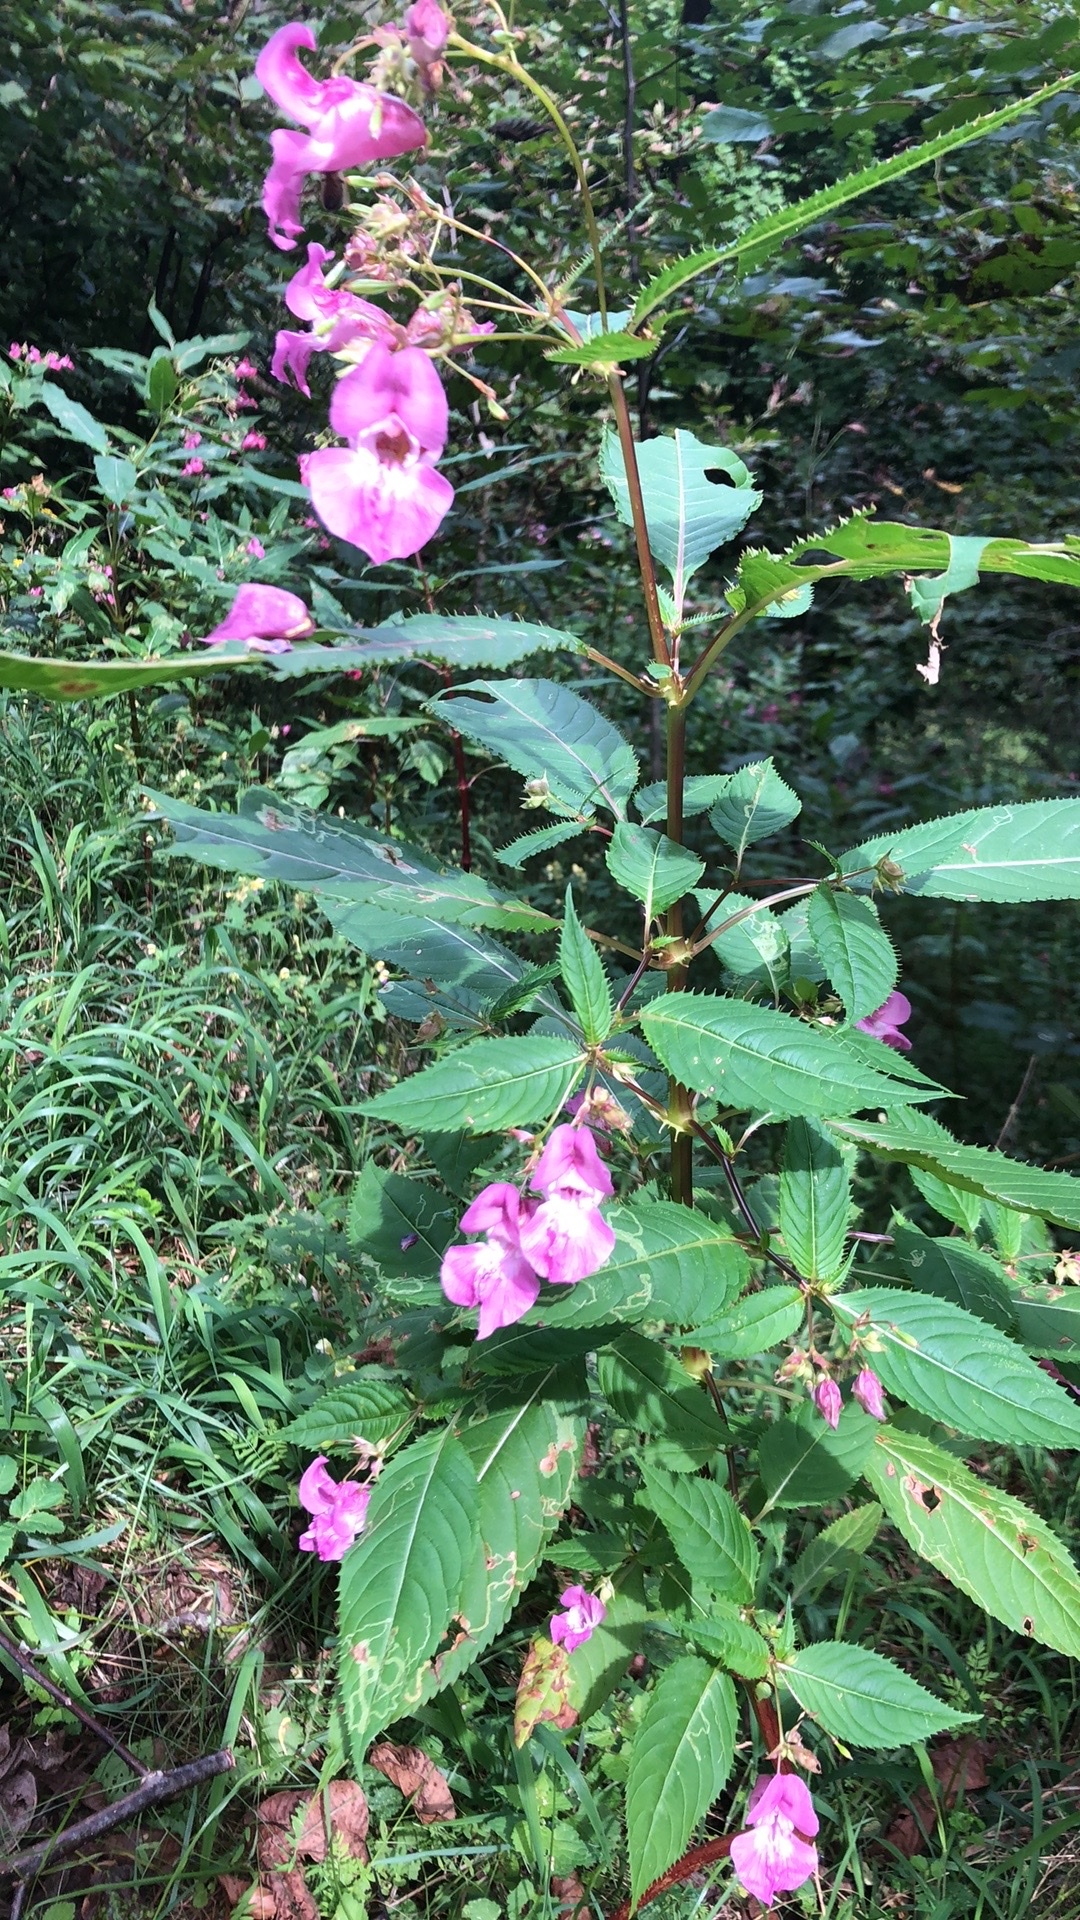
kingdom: Plantae
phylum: Tracheophyta
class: Magnoliopsida
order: Ericales
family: Balsaminaceae
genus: Impatiens
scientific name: Impatiens glandulifera
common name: Himalayan balsam
